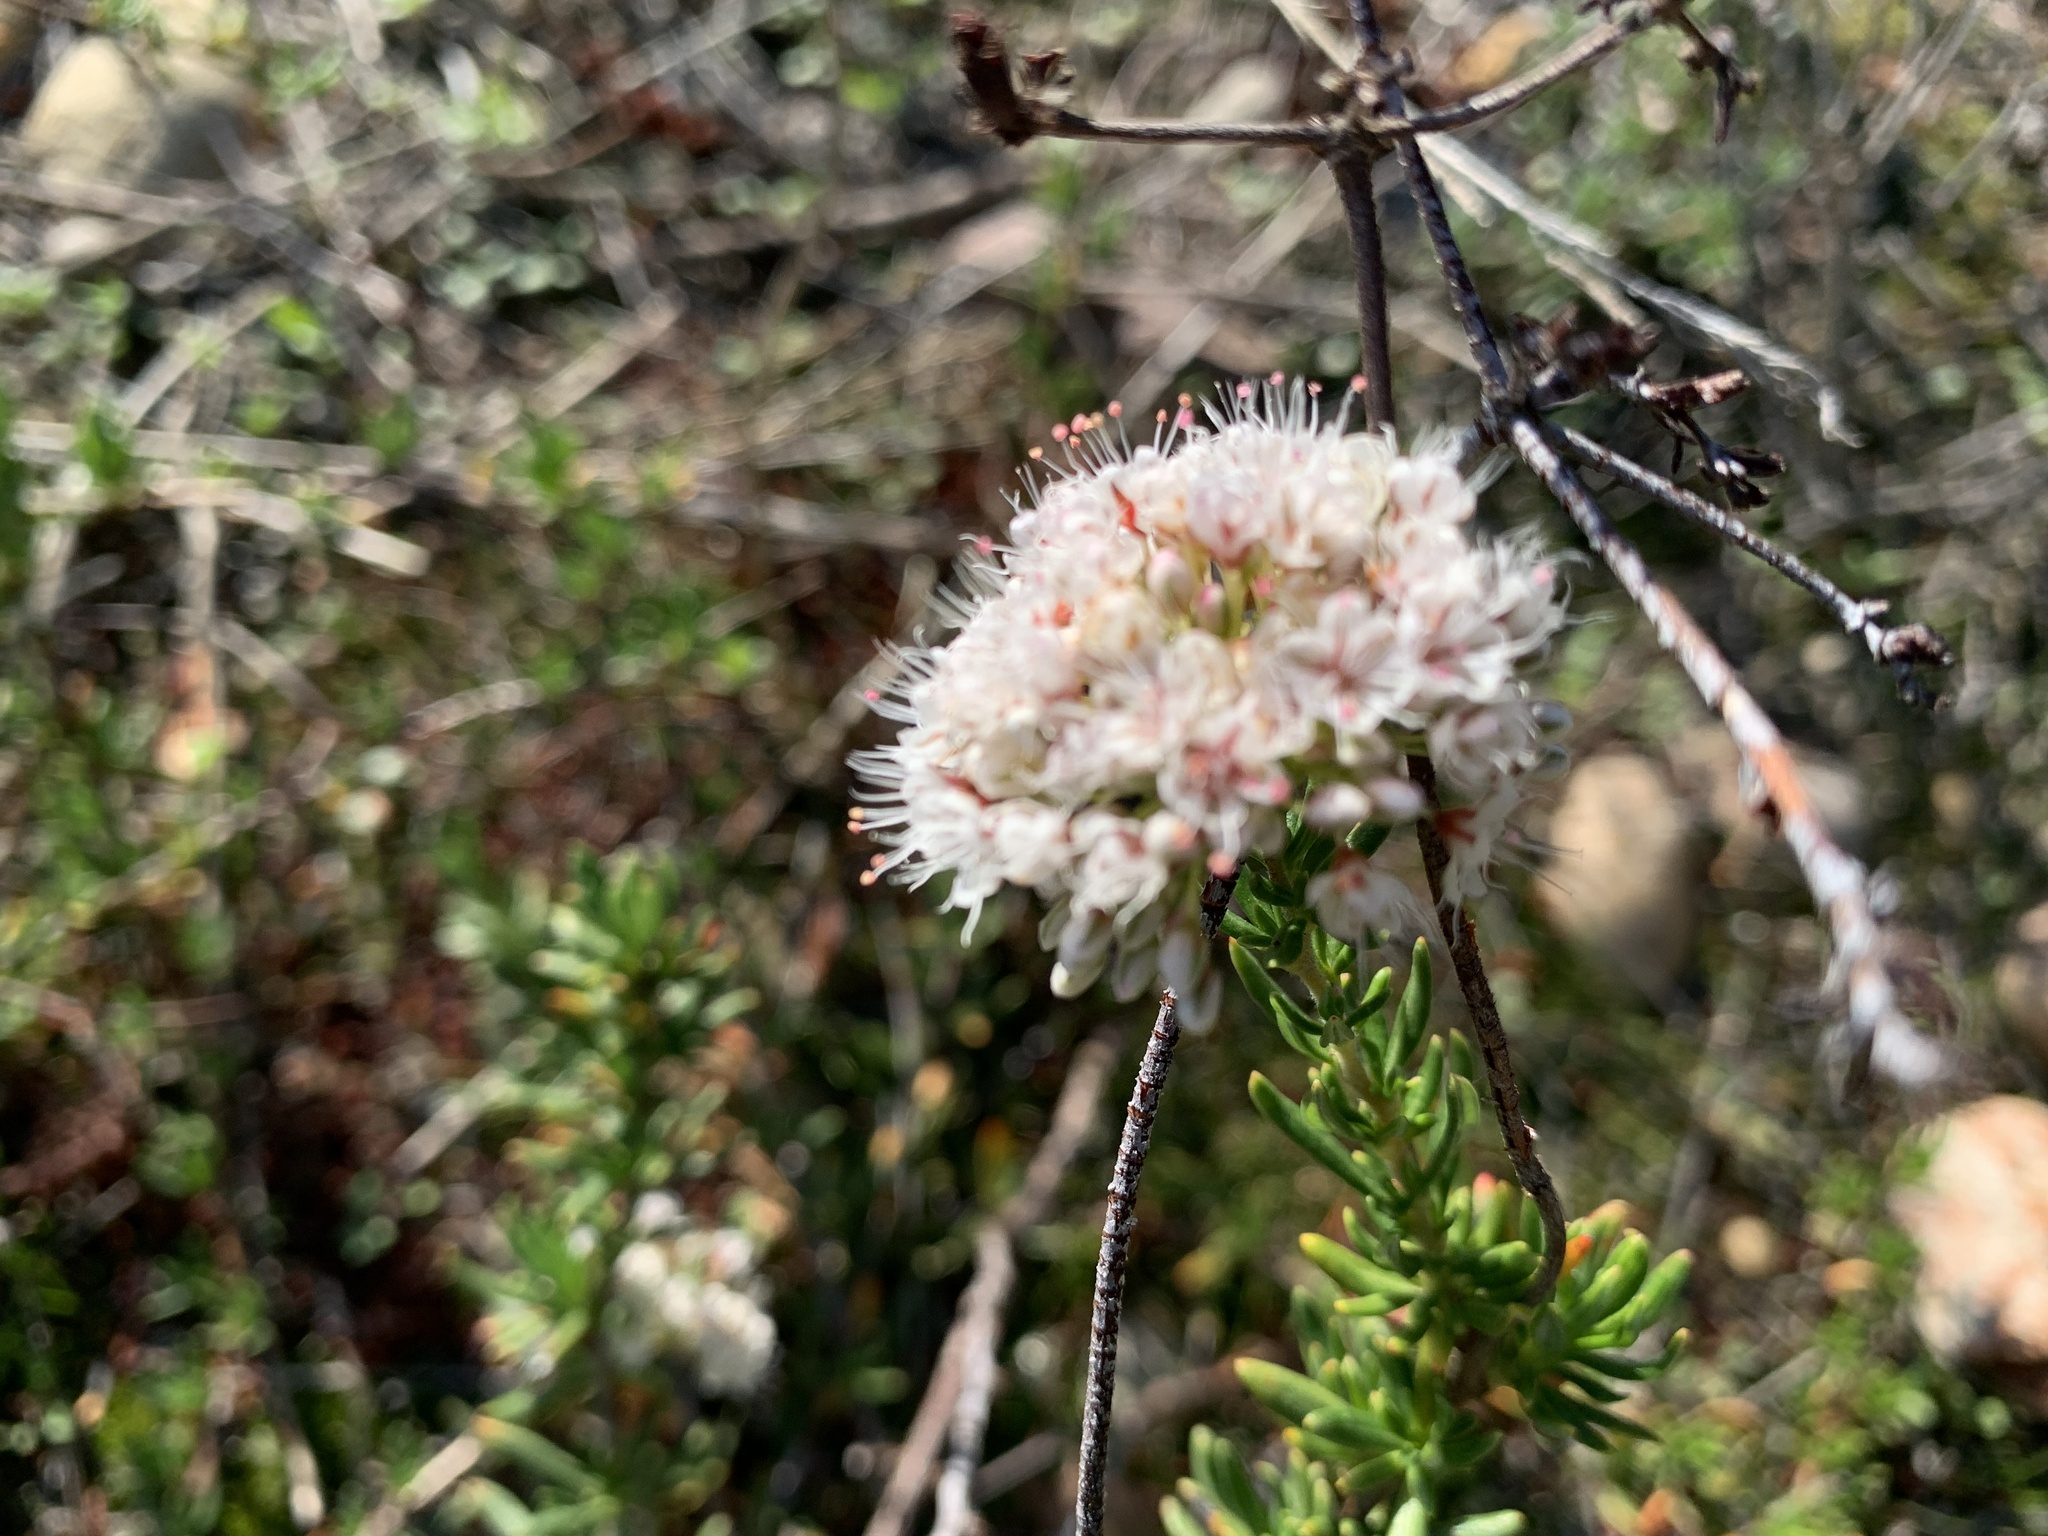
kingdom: Plantae
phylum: Tracheophyta
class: Magnoliopsida
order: Caryophyllales
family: Polygonaceae
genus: Eriogonum
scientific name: Eriogonum fasciculatum
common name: California wild buckwheat
